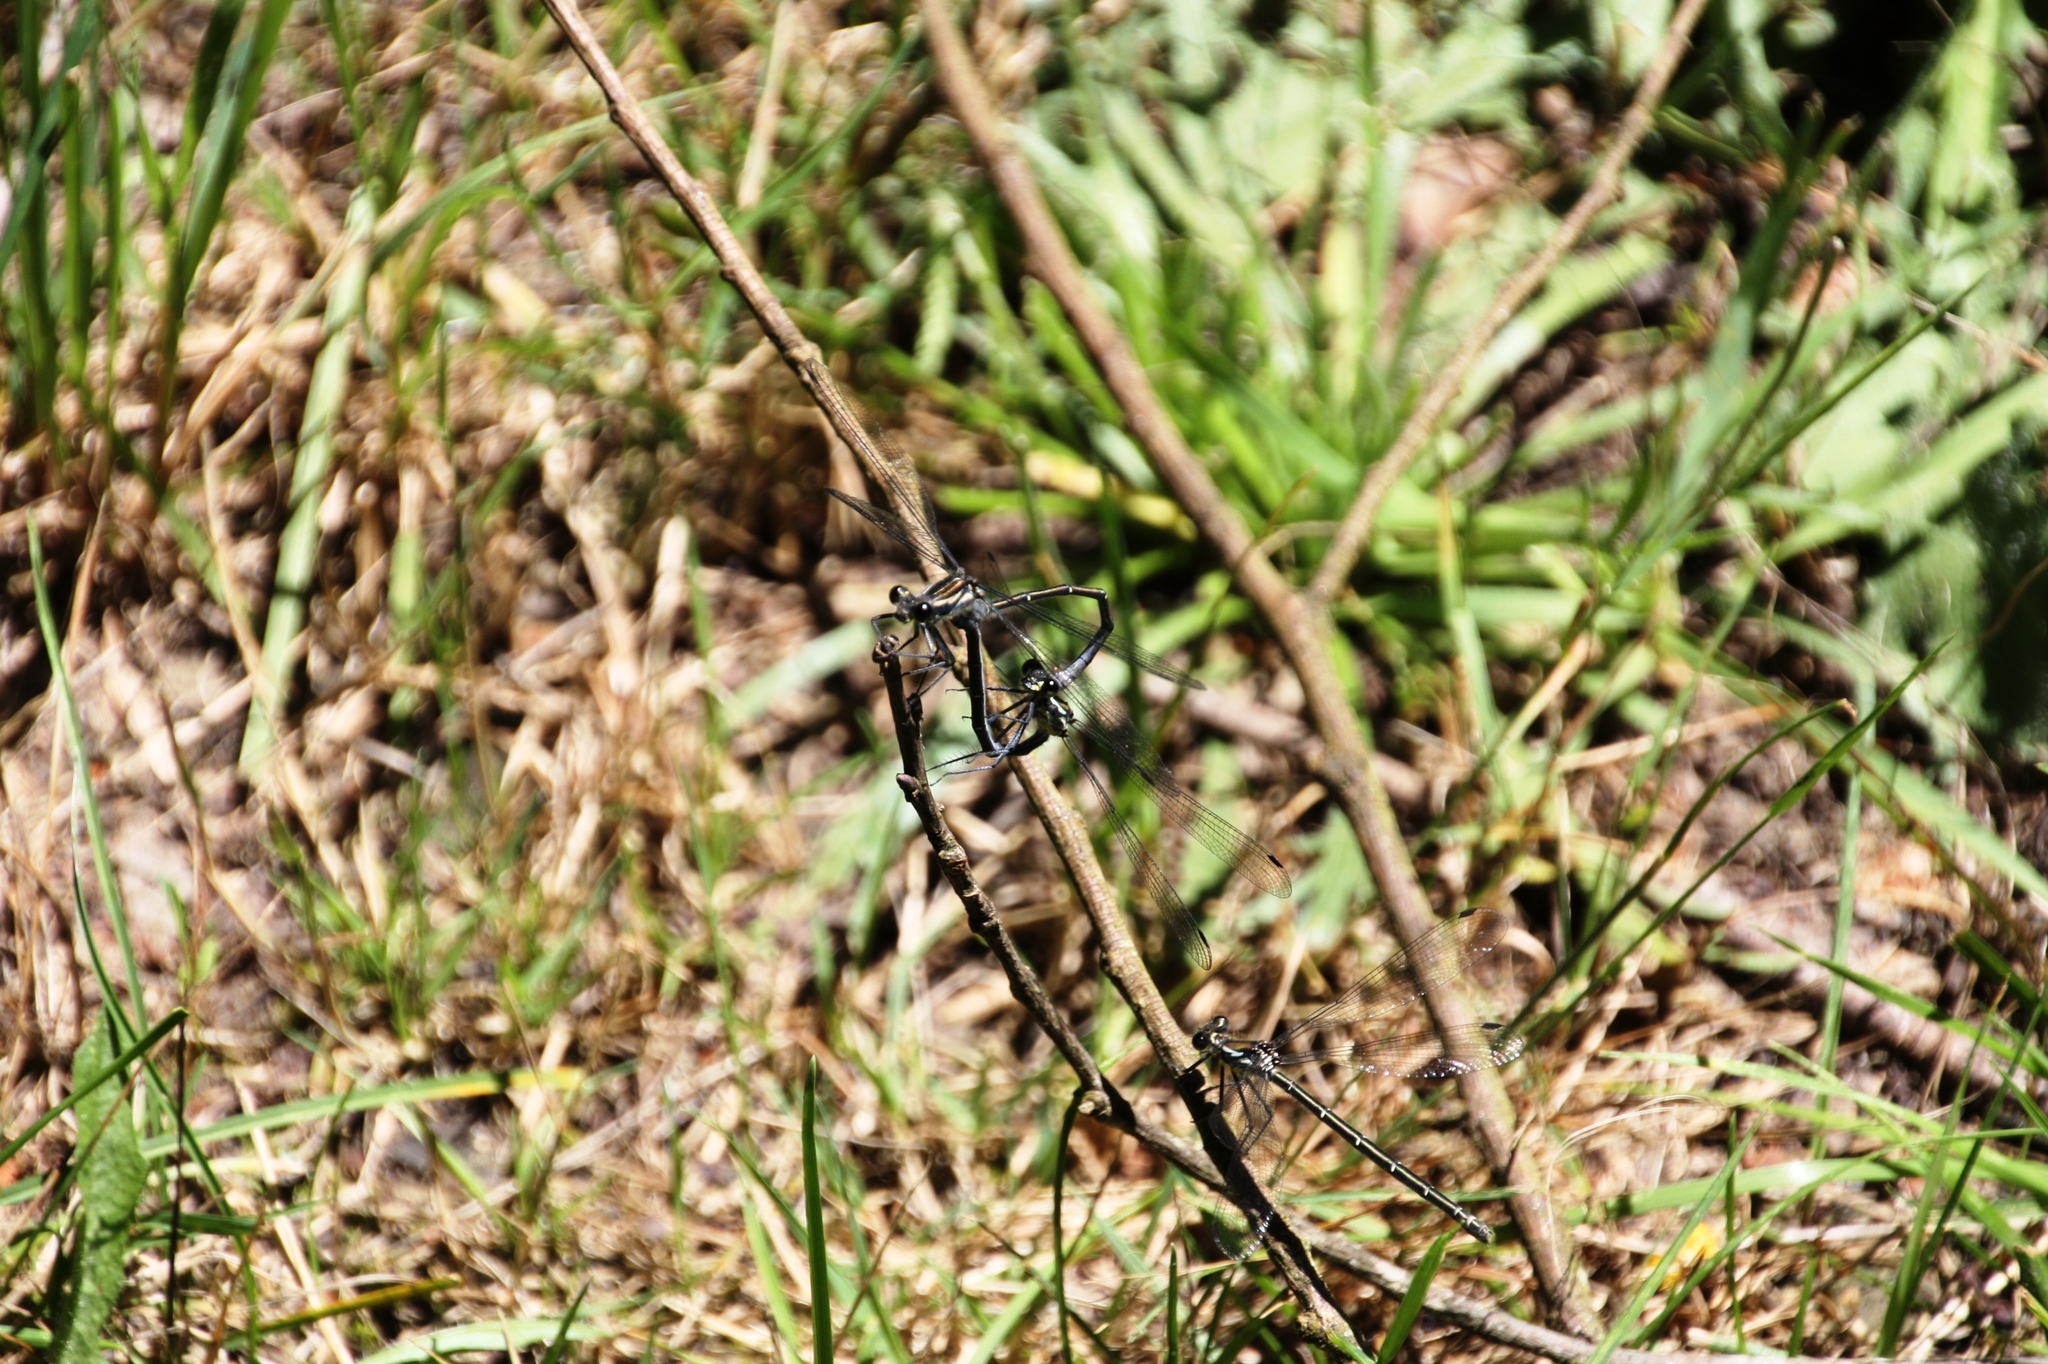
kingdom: Animalia
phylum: Arthropoda
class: Insecta
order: Odonata
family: Argiolestidae
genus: Austroargiolestes
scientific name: Austroargiolestes icteromelas
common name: Common flatwing
